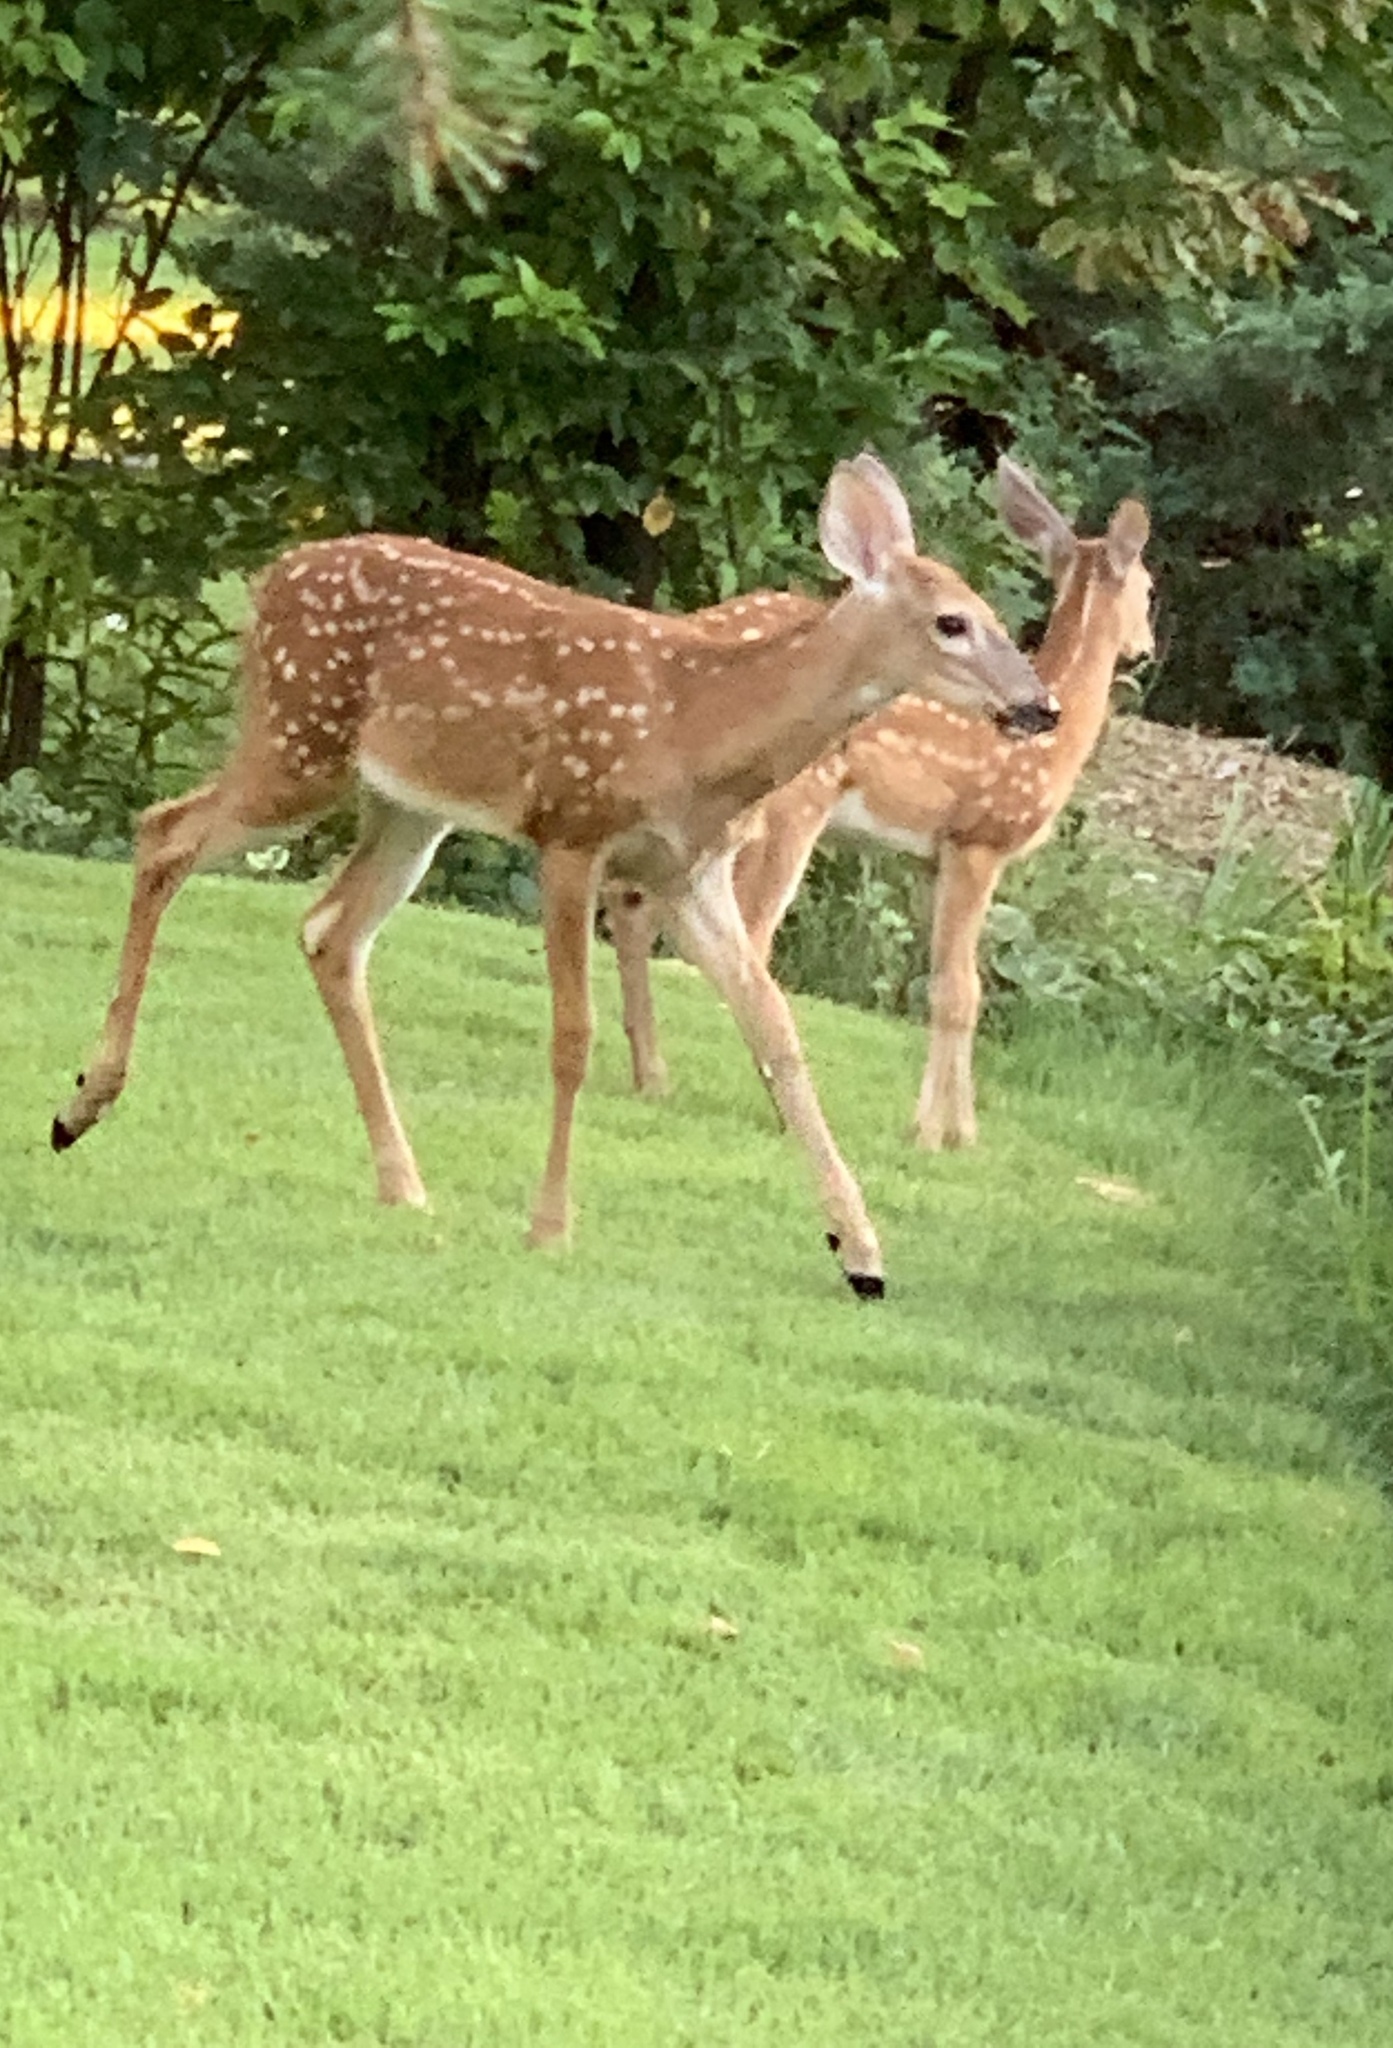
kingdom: Animalia
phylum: Chordata
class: Mammalia
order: Artiodactyla
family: Cervidae
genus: Odocoileus
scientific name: Odocoileus virginianus
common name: White-tailed deer
